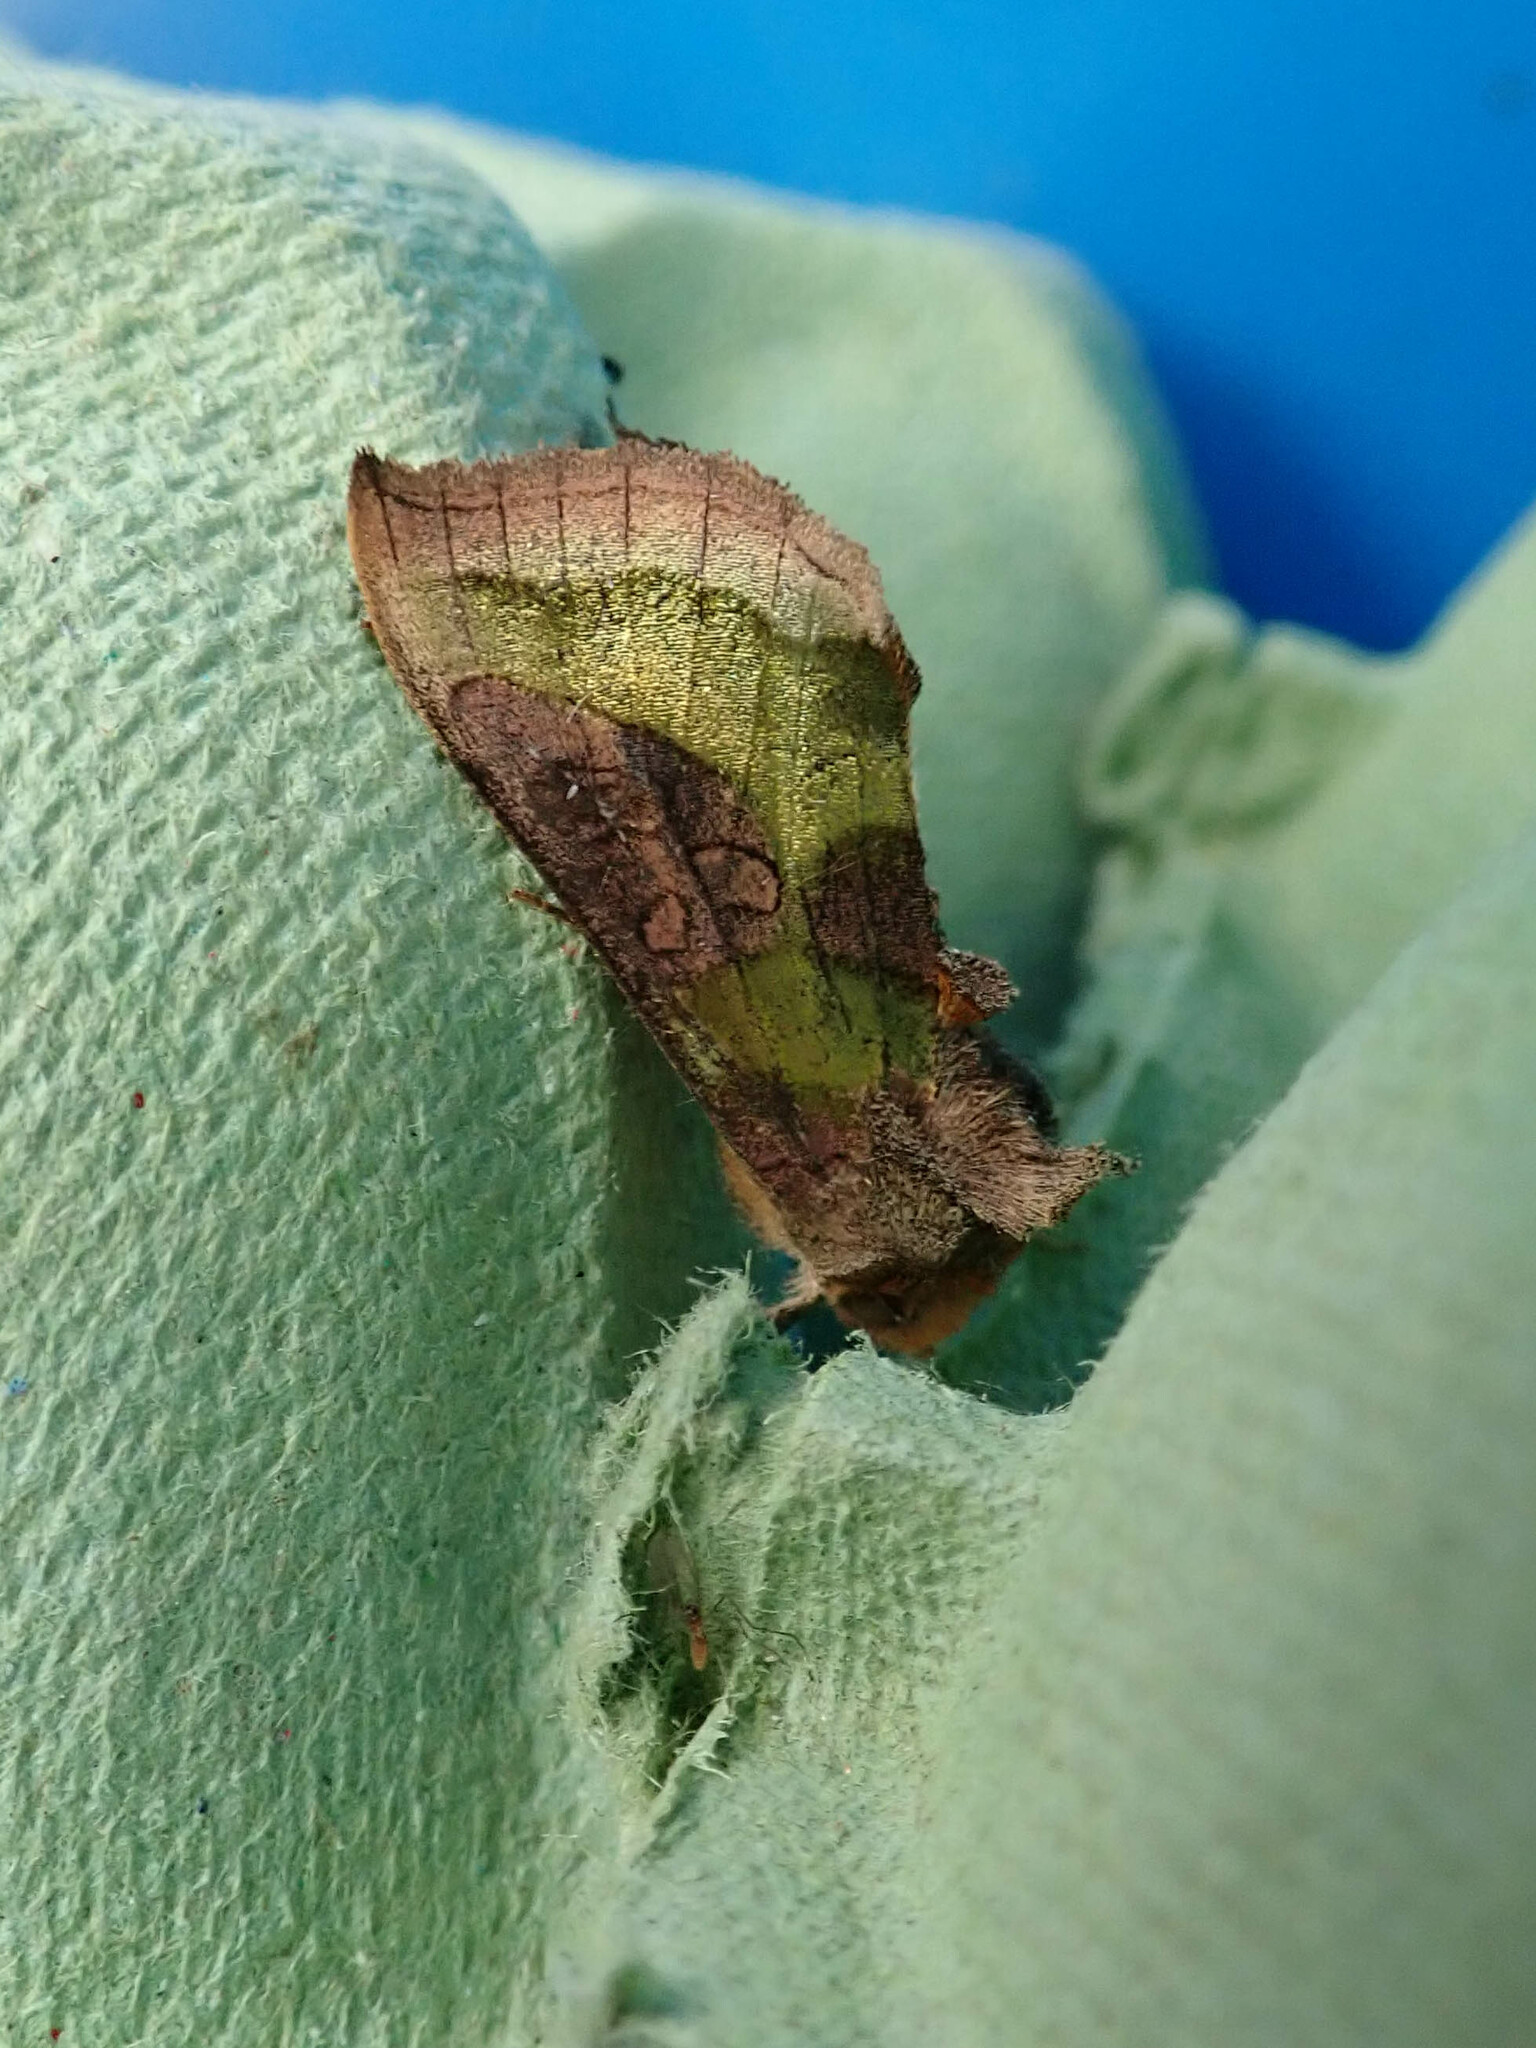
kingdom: Animalia
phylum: Arthropoda
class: Insecta
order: Lepidoptera
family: Noctuidae
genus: Diachrysia
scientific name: Diachrysia chrysitis
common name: Burnished brass
